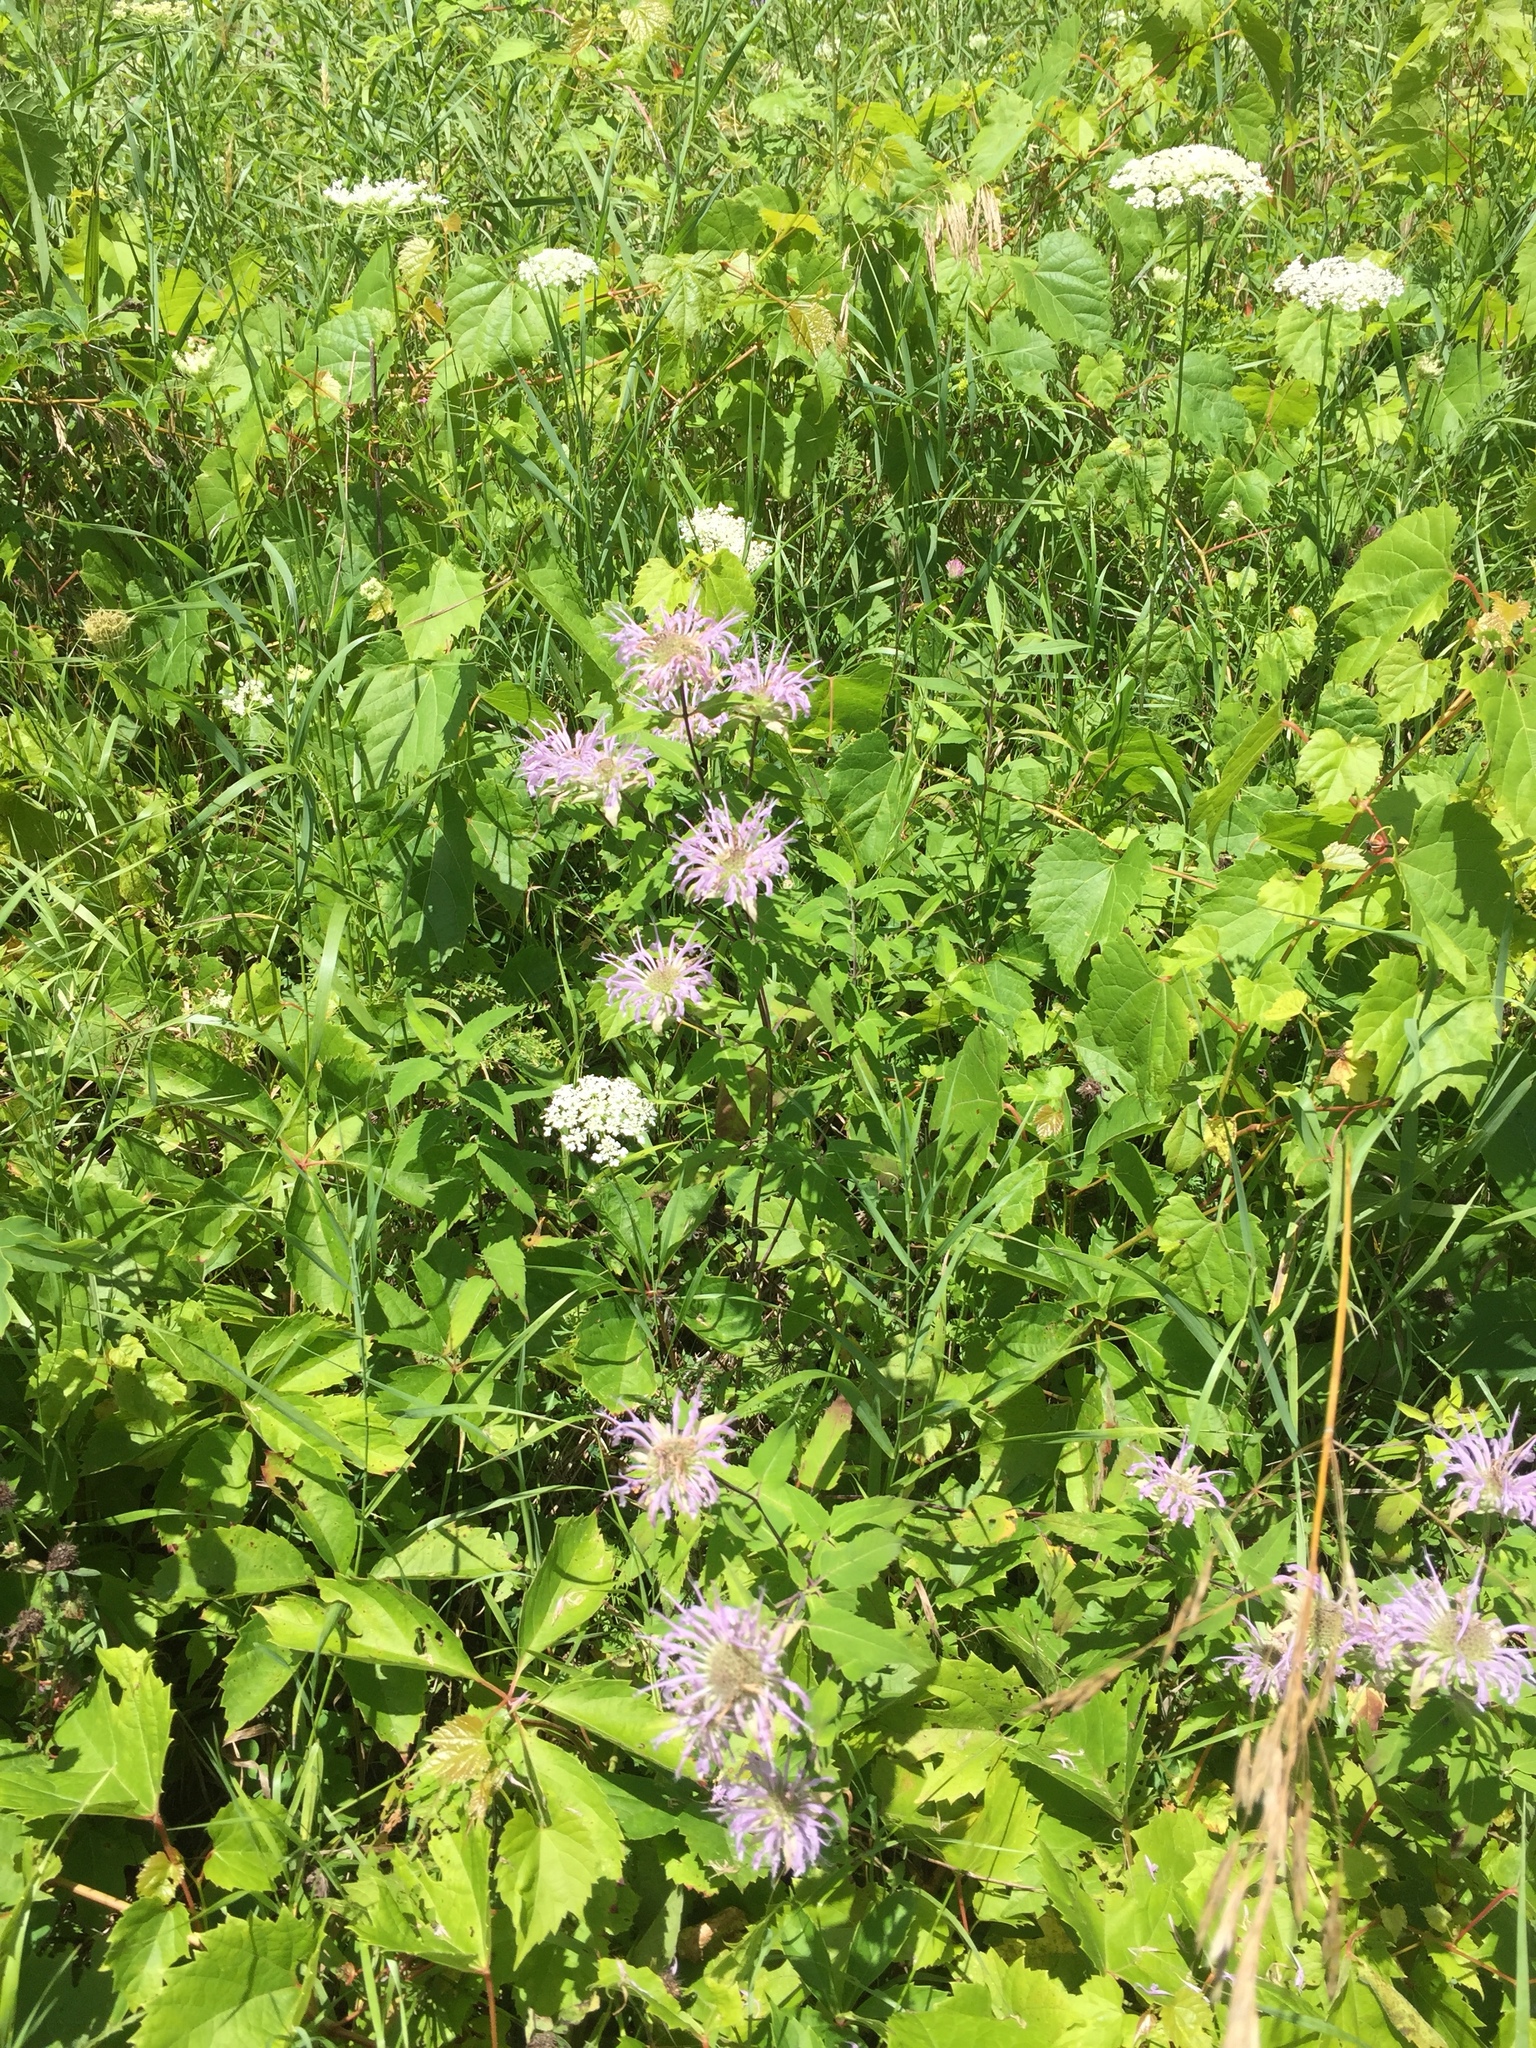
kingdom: Plantae
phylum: Tracheophyta
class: Magnoliopsida
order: Lamiales
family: Lamiaceae
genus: Monarda
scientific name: Monarda fistulosa
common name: Purple beebalm
